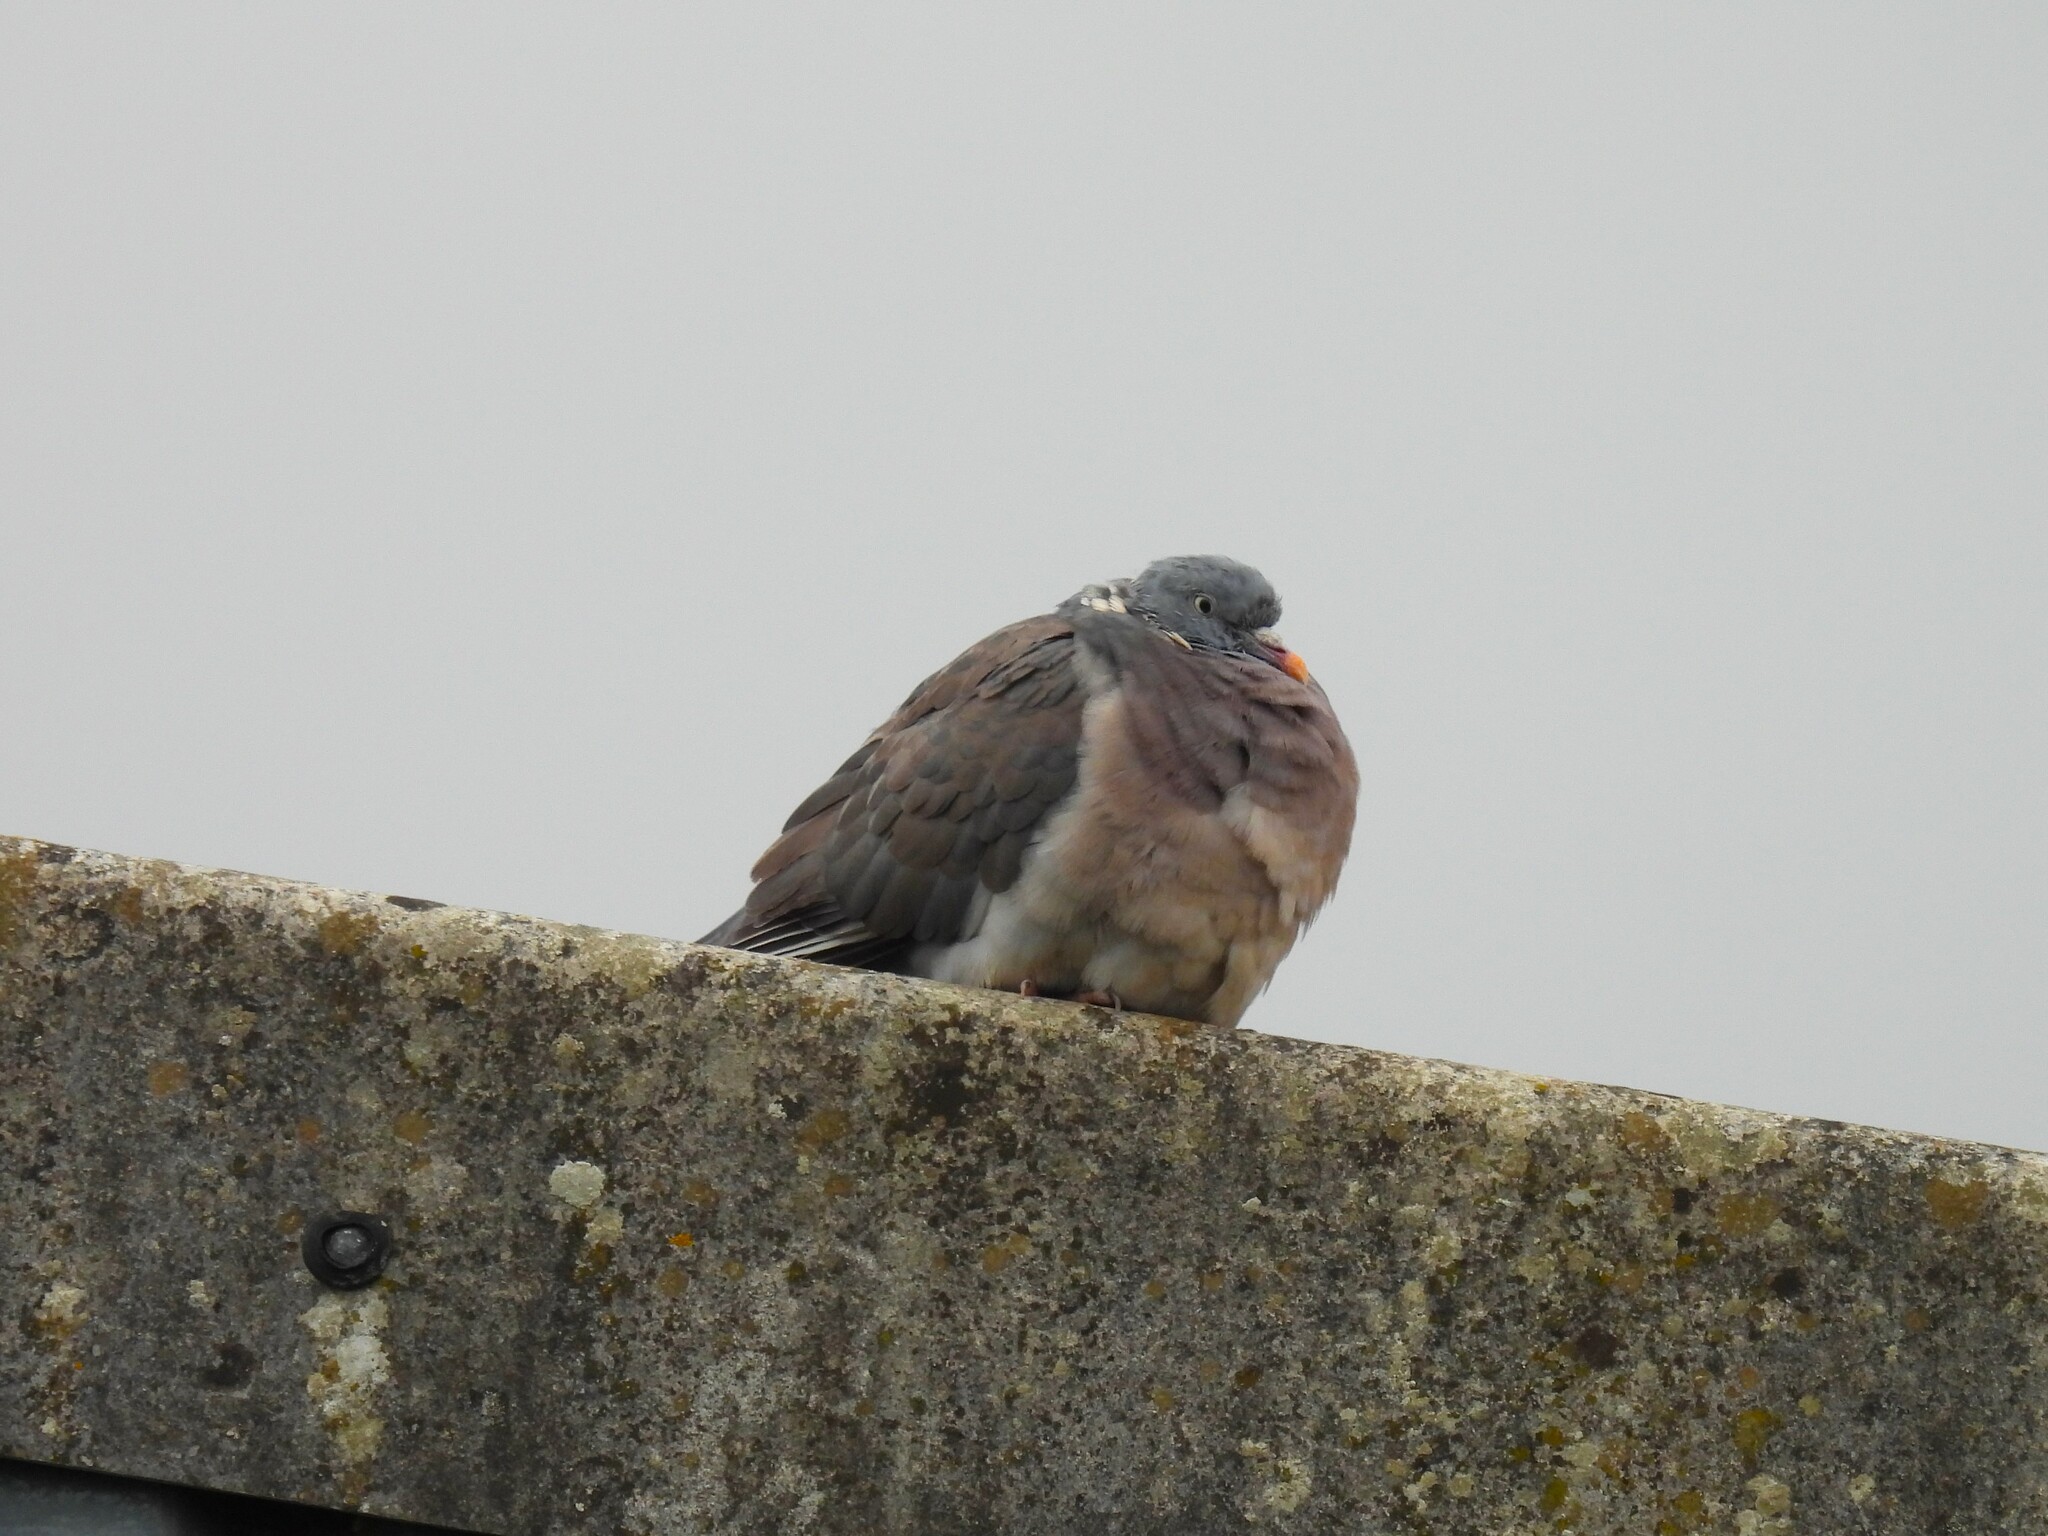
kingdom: Animalia
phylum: Chordata
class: Aves
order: Columbiformes
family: Columbidae
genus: Columba
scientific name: Columba palumbus
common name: Common wood pigeon
